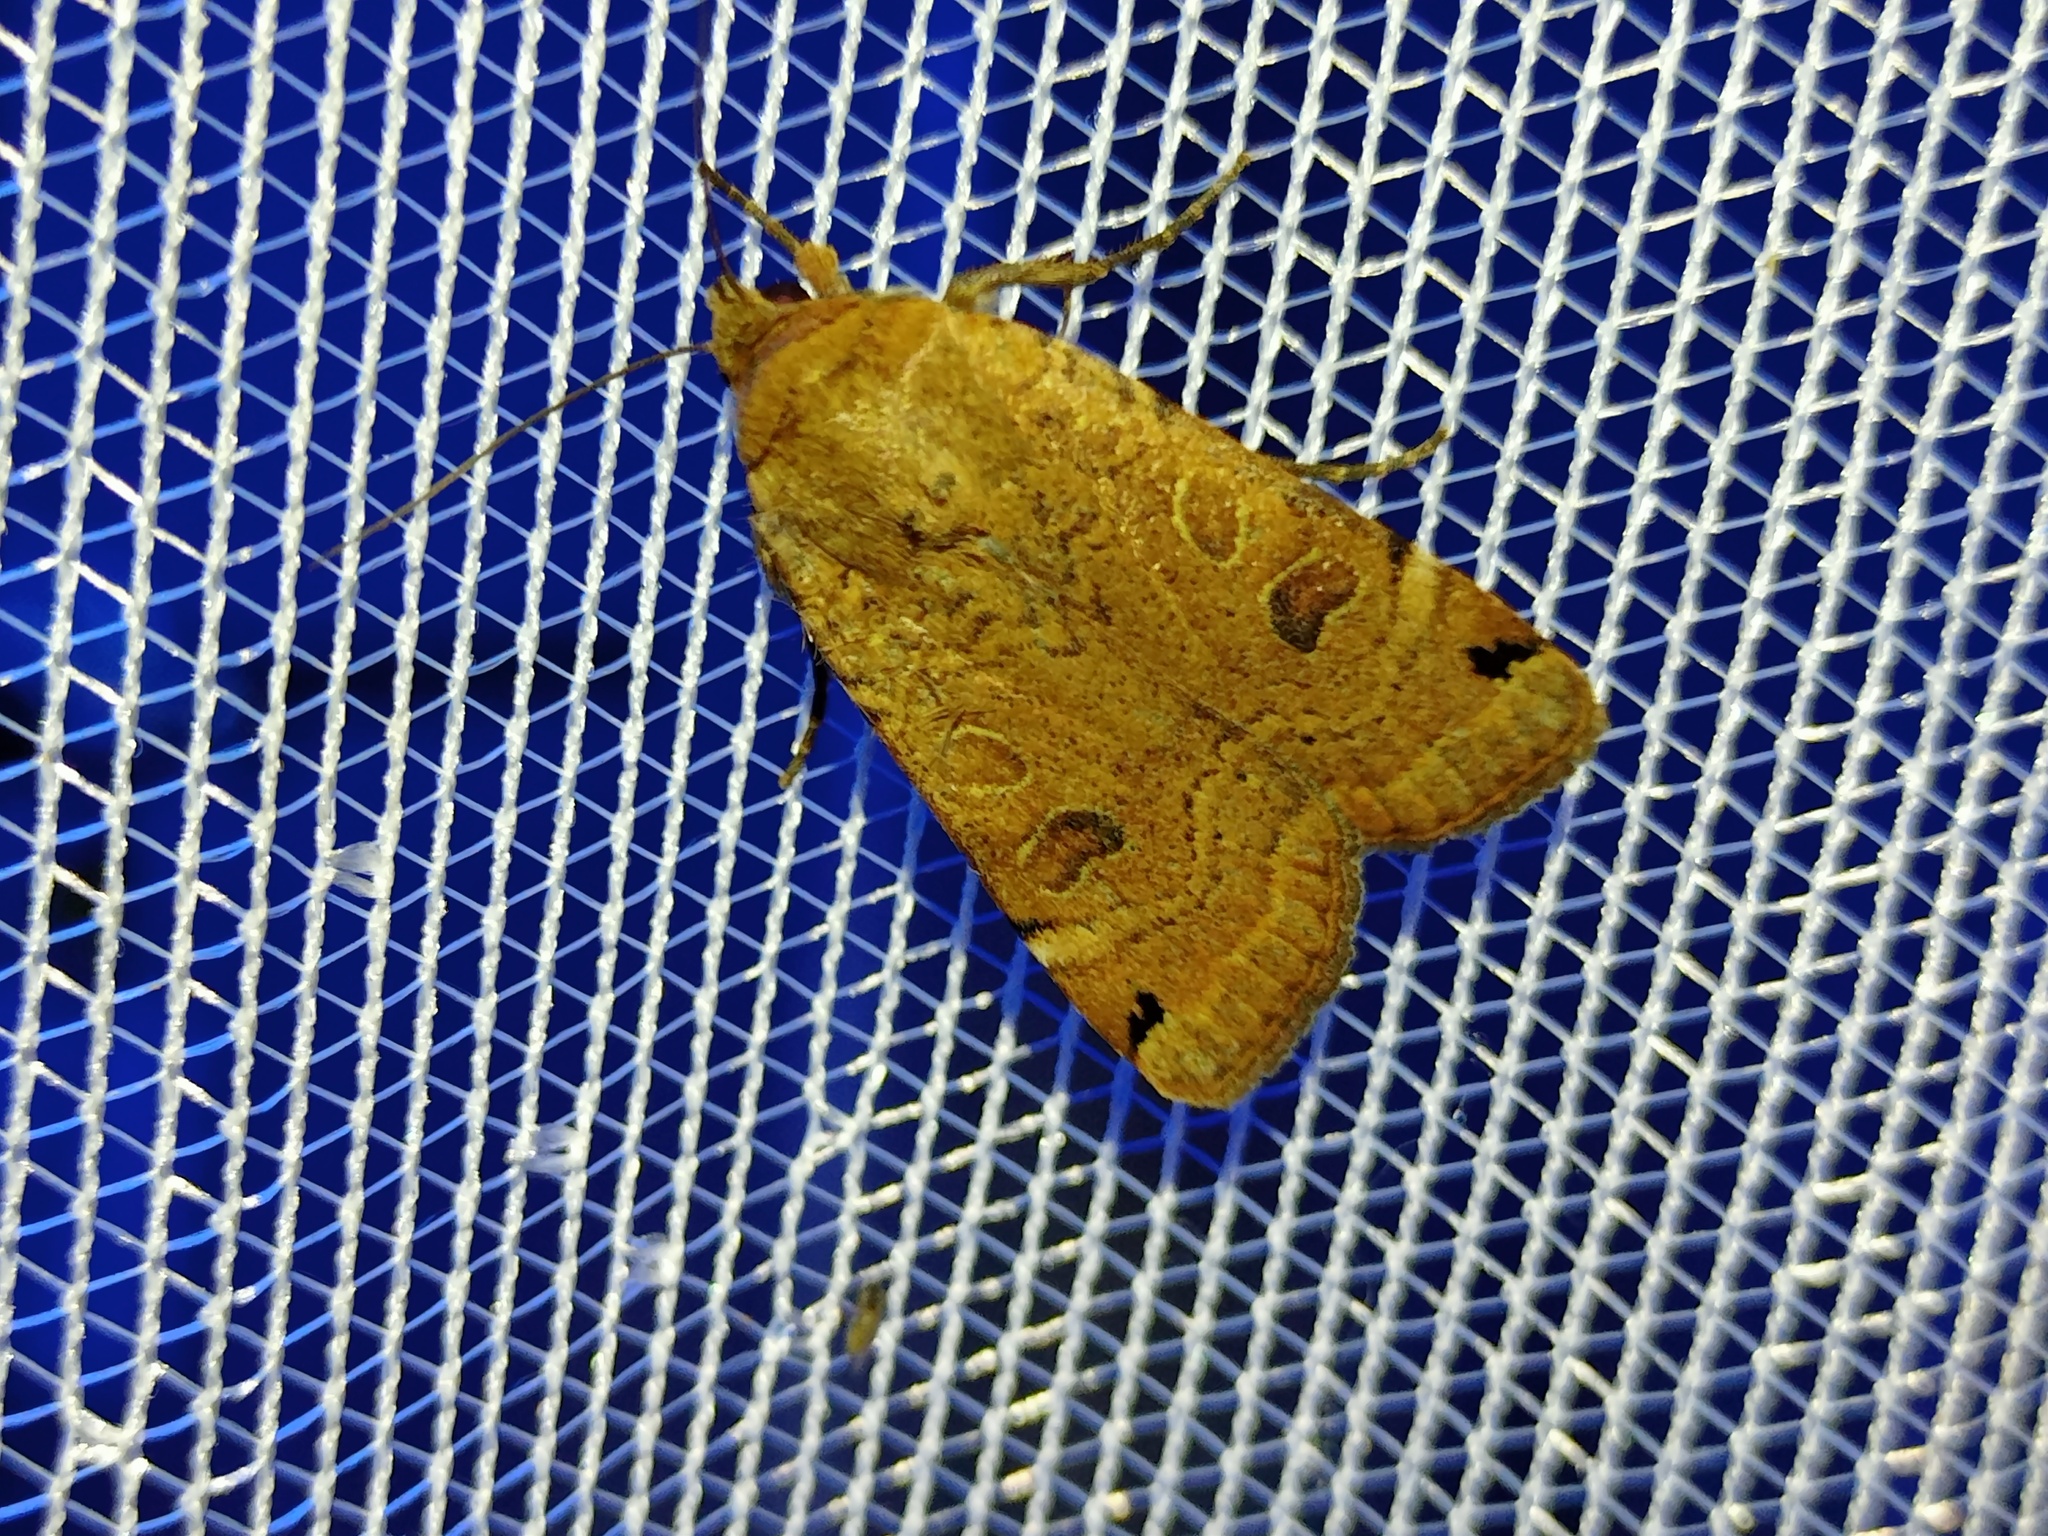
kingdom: Animalia
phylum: Arthropoda
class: Insecta
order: Lepidoptera
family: Noctuidae
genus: Noctua
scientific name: Noctua orbona
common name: Lunar yellow underwing
